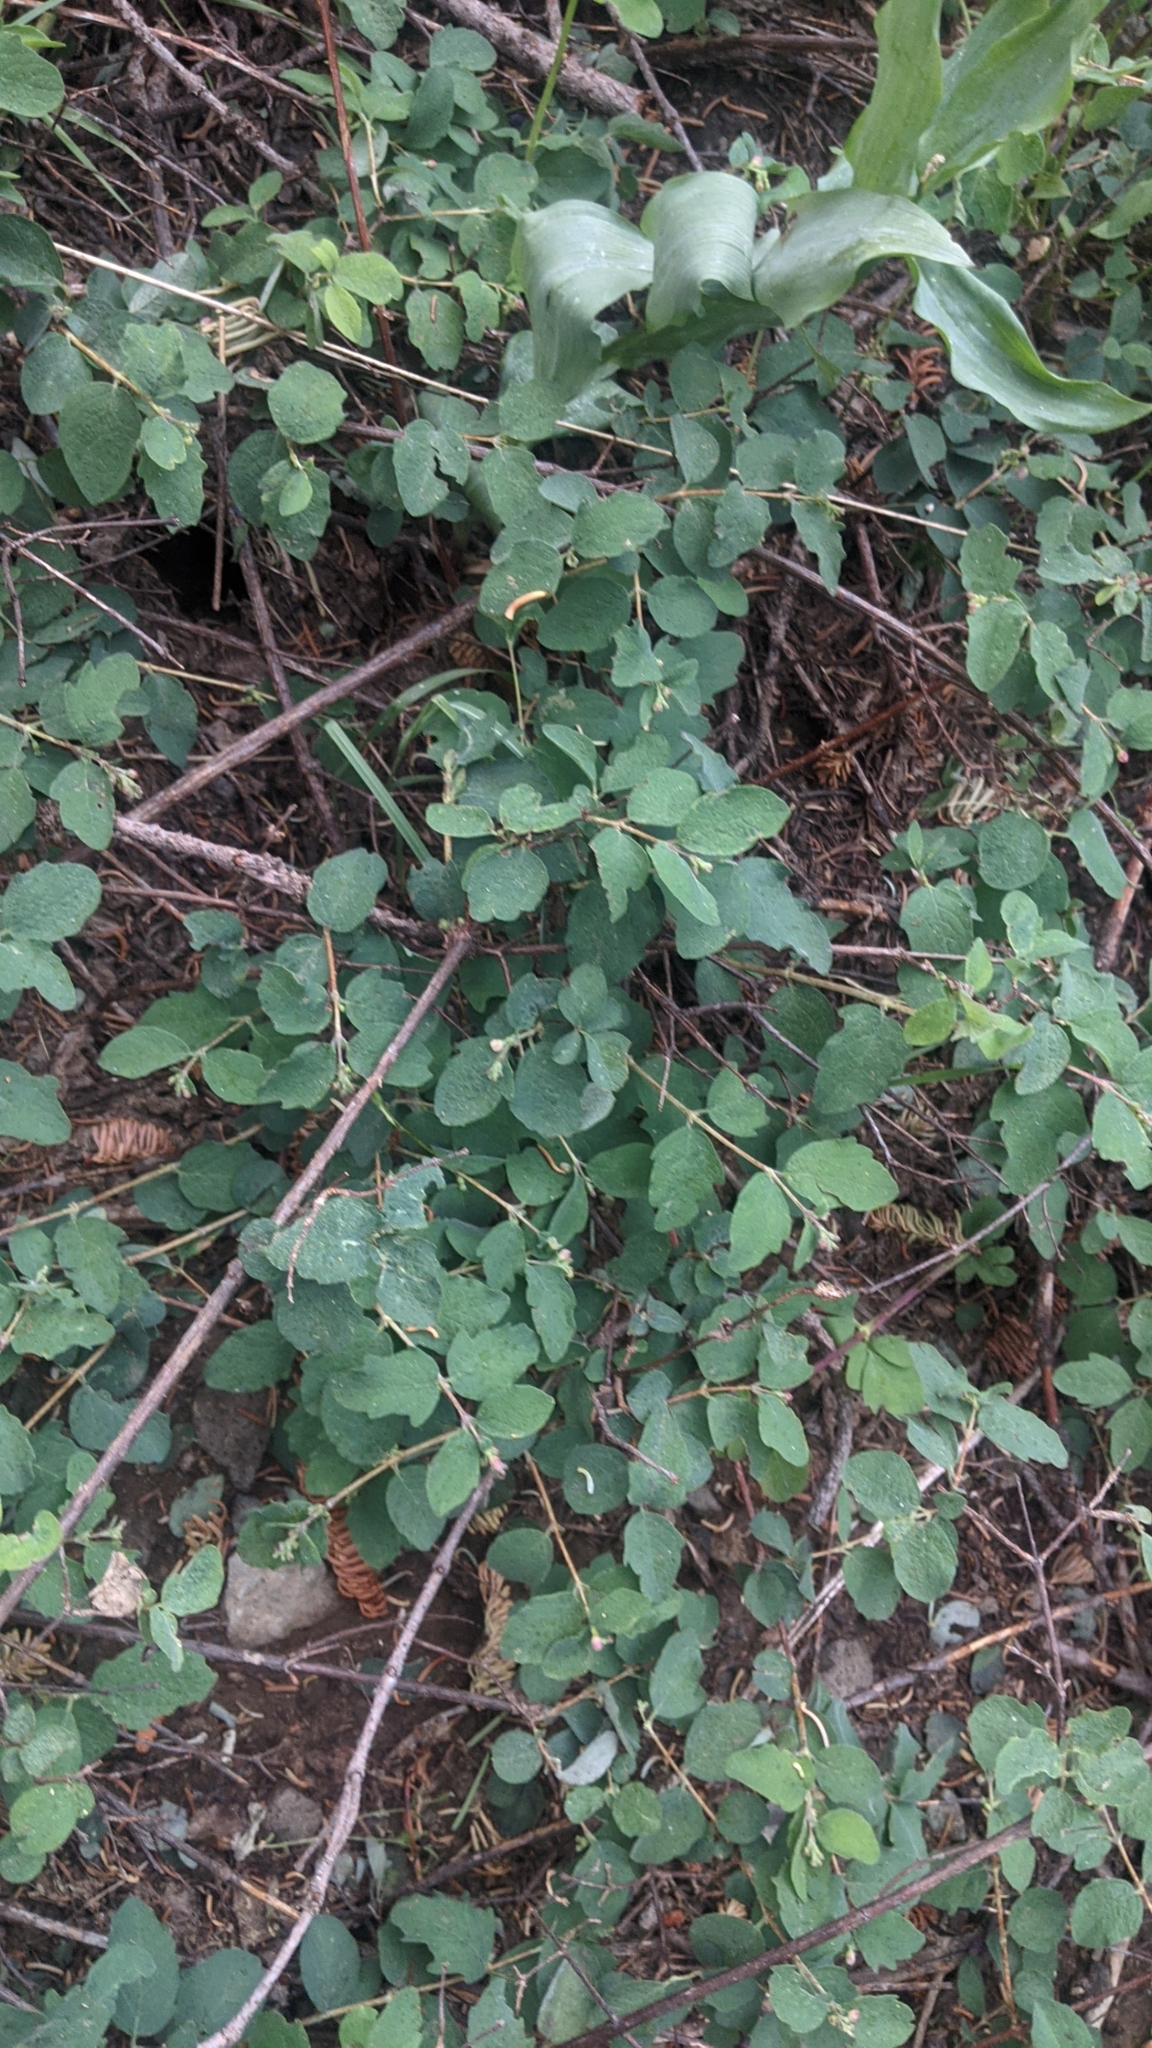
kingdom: Plantae
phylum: Tracheophyta
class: Magnoliopsida
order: Dipsacales
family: Caprifoliaceae
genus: Symphoricarpos
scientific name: Symphoricarpos mollis
